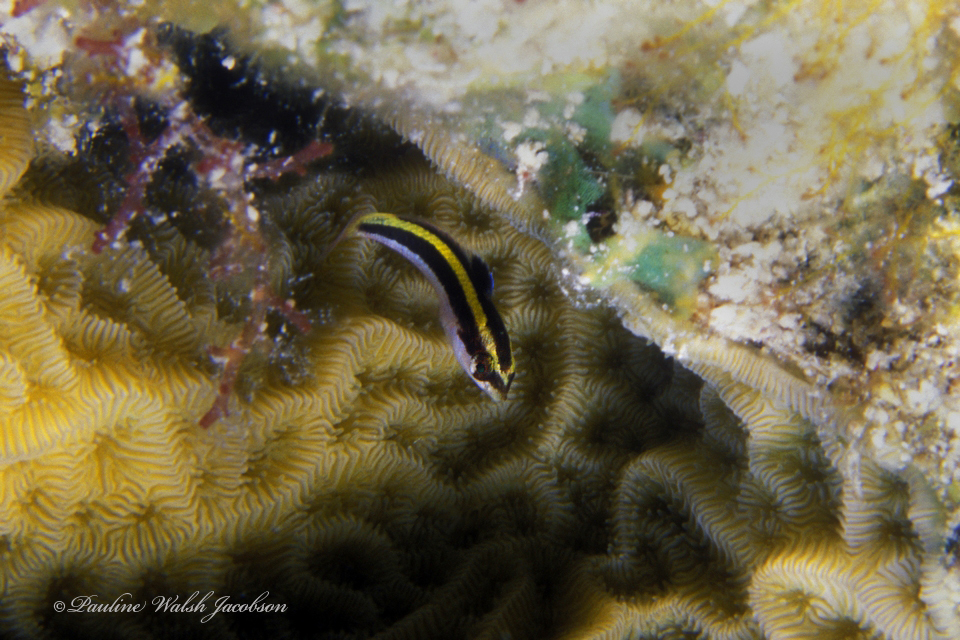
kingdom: Animalia
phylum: Chordata
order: Perciformes
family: Labridae
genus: Thalassoma
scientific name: Thalassoma bifasciatum
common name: Bluehead wrasse
